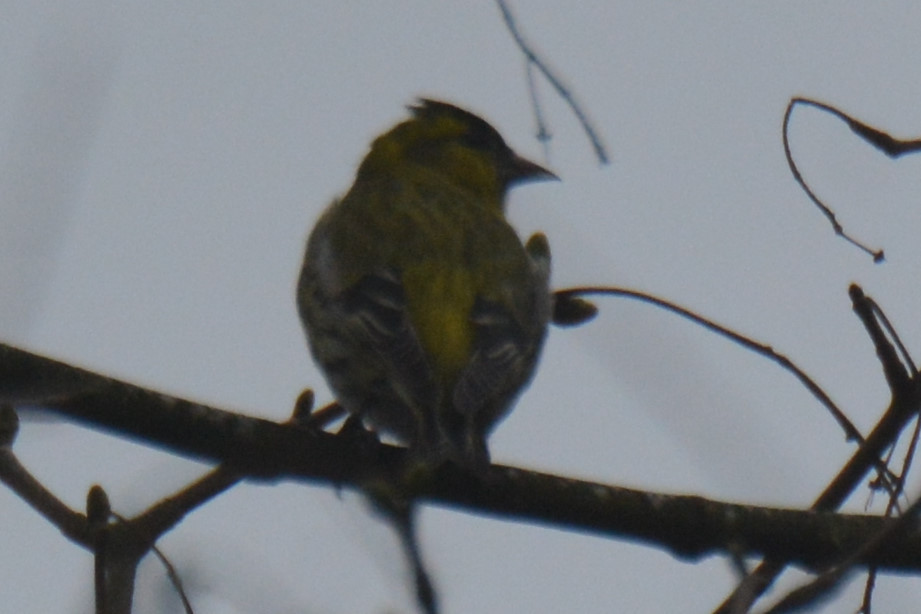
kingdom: Animalia
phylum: Chordata
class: Aves
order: Passeriformes
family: Fringillidae
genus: Spinus
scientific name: Spinus spinus
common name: Eurasian siskin
